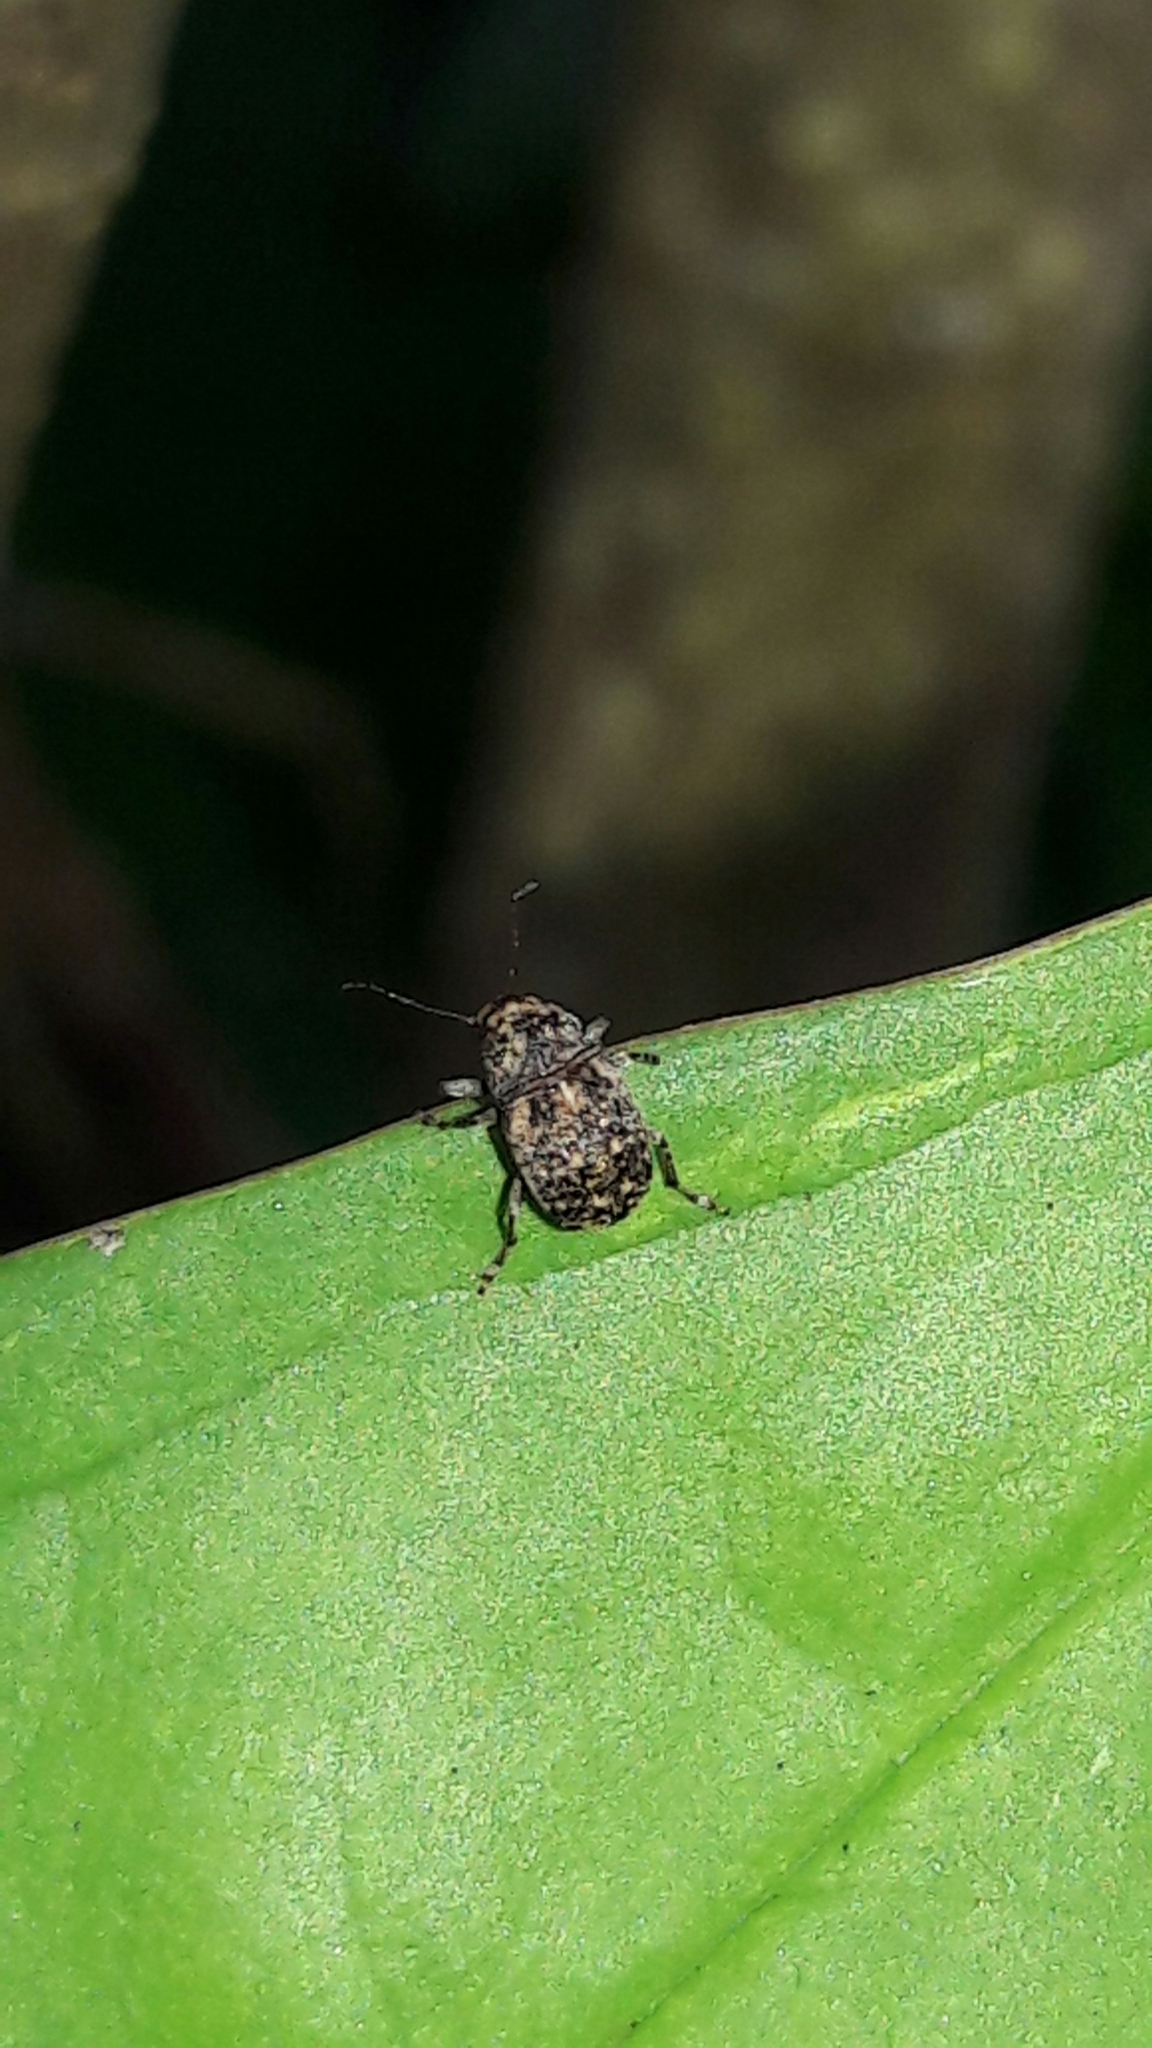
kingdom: Animalia
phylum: Arthropoda
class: Insecta
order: Coleoptera
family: Anthribidae
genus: Araecerus
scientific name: Araecerus fasciculatus
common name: Coffee bean weevil
